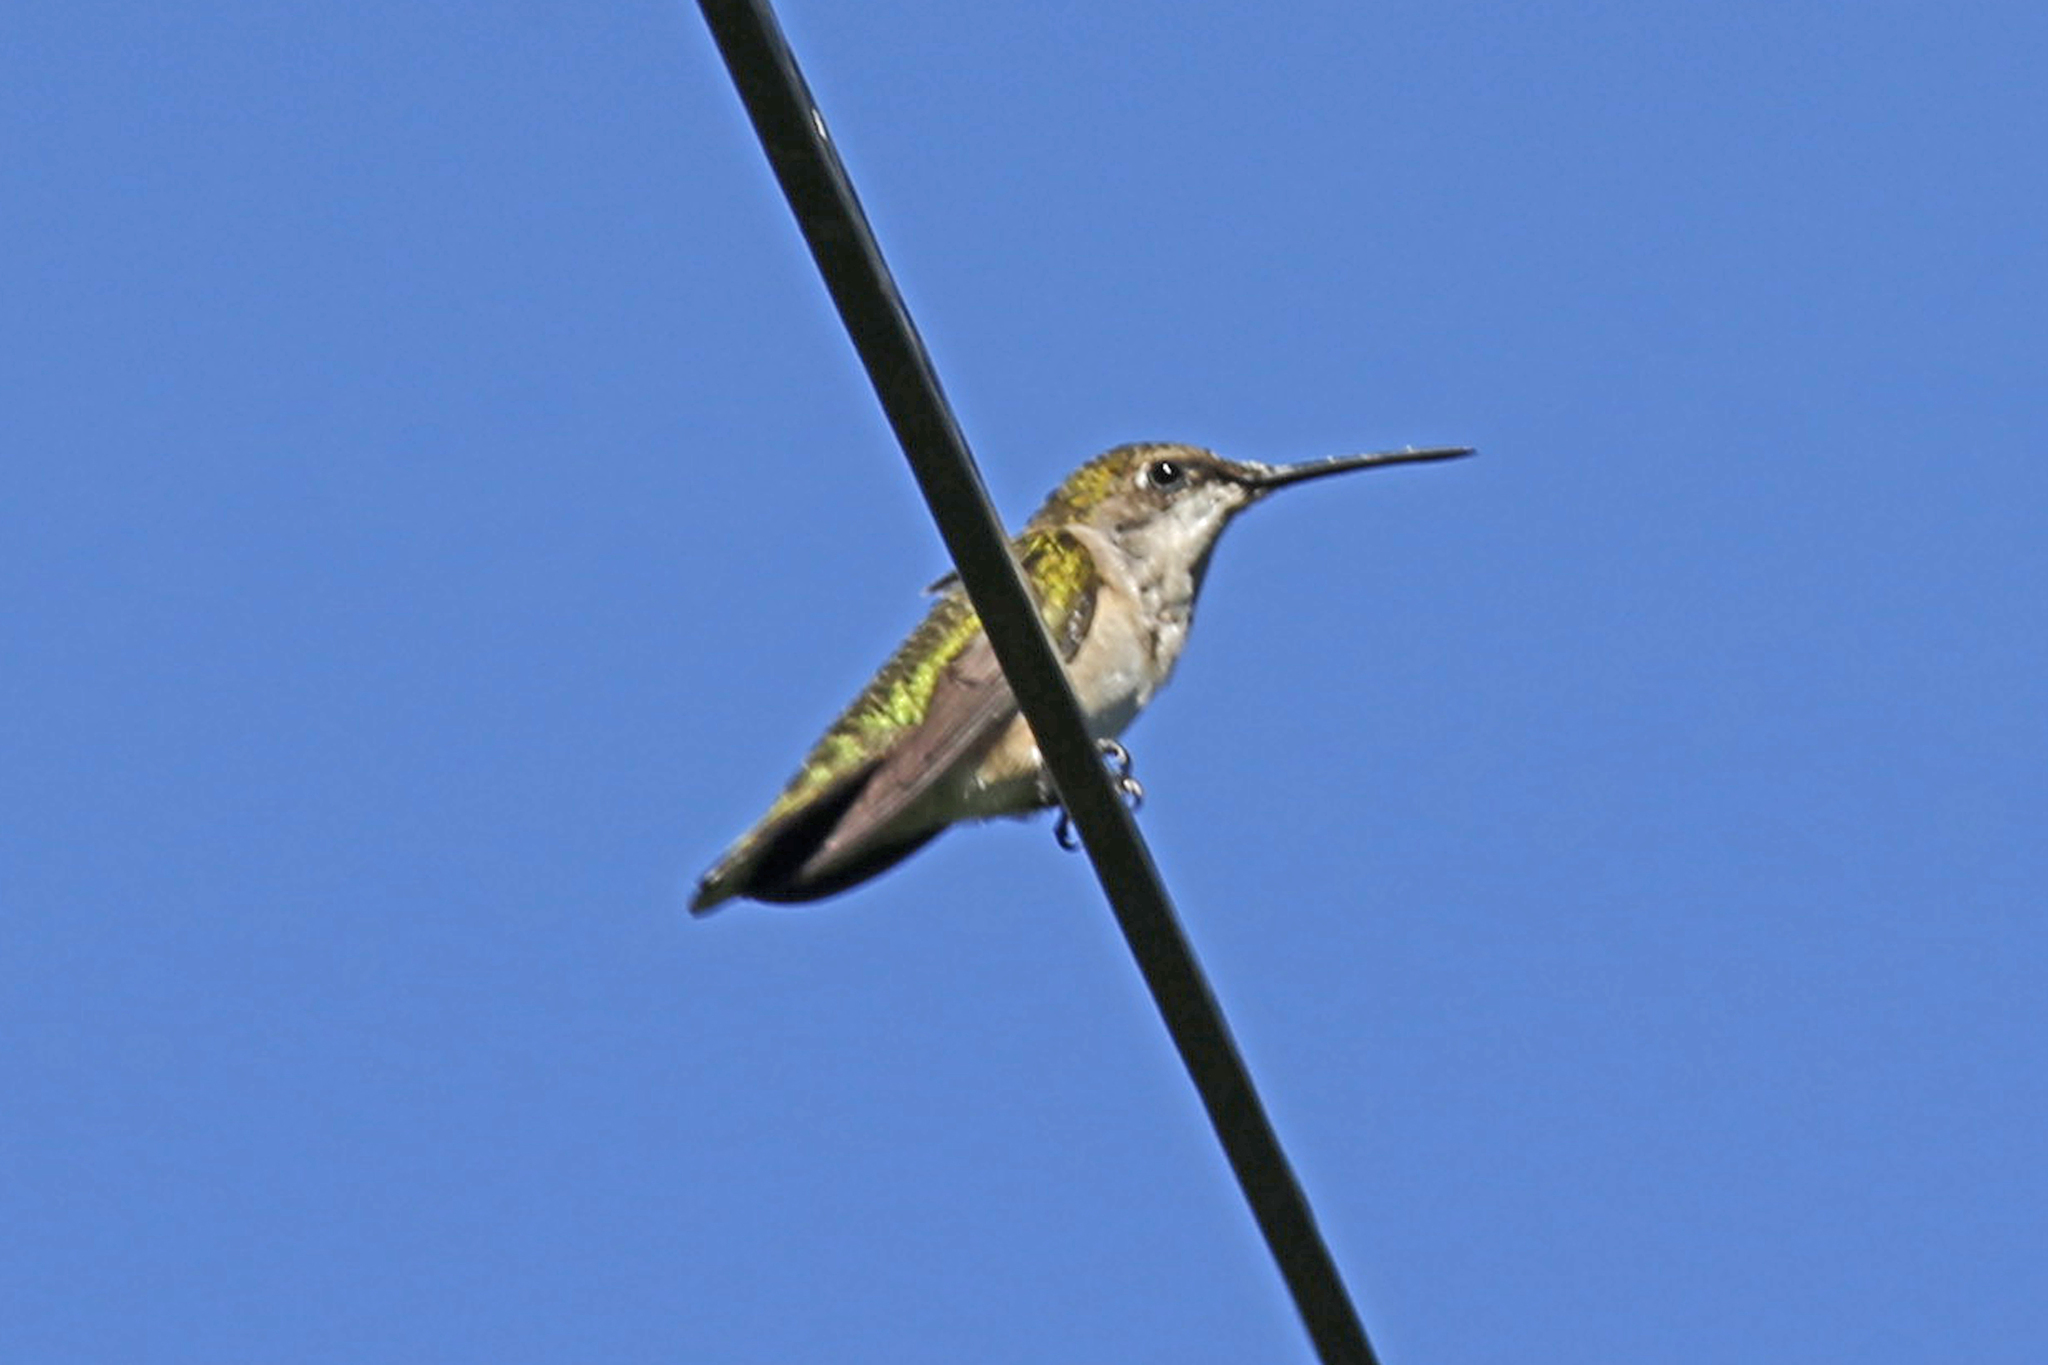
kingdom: Animalia
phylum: Chordata
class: Aves
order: Apodiformes
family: Trochilidae
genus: Archilochus
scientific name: Archilochus colubris
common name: Ruby-throated hummingbird
